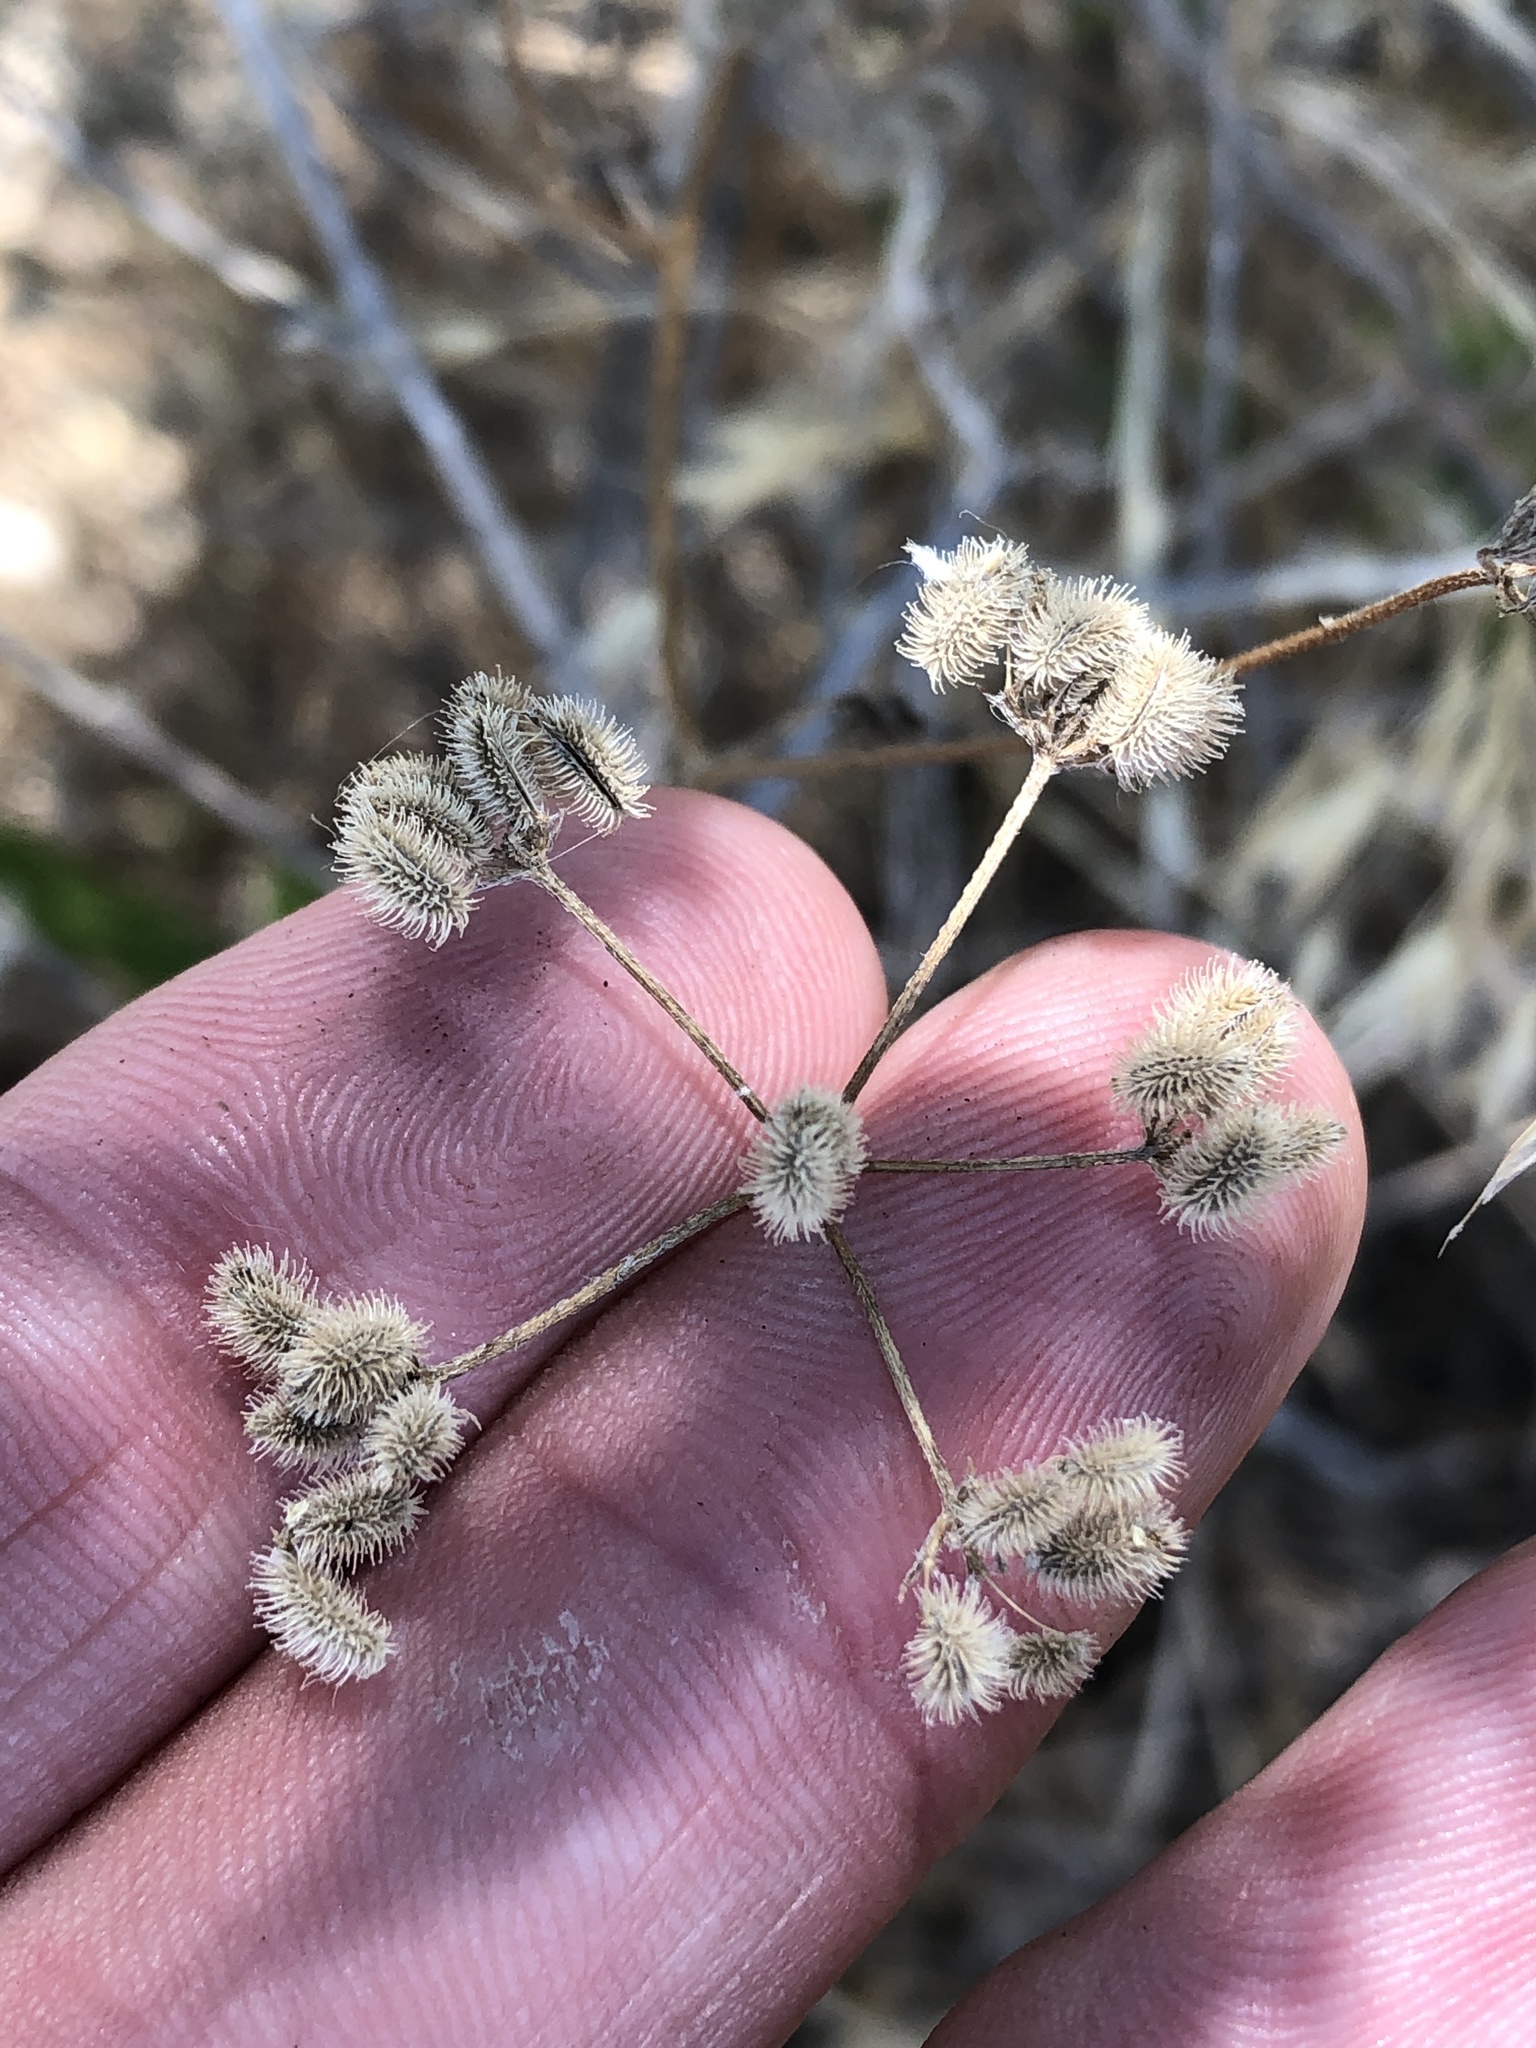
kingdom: Plantae
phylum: Tracheophyta
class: Magnoliopsida
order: Apiales
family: Apiaceae
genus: Torilis
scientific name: Torilis arvensis
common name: Spreading hedge-parsley
